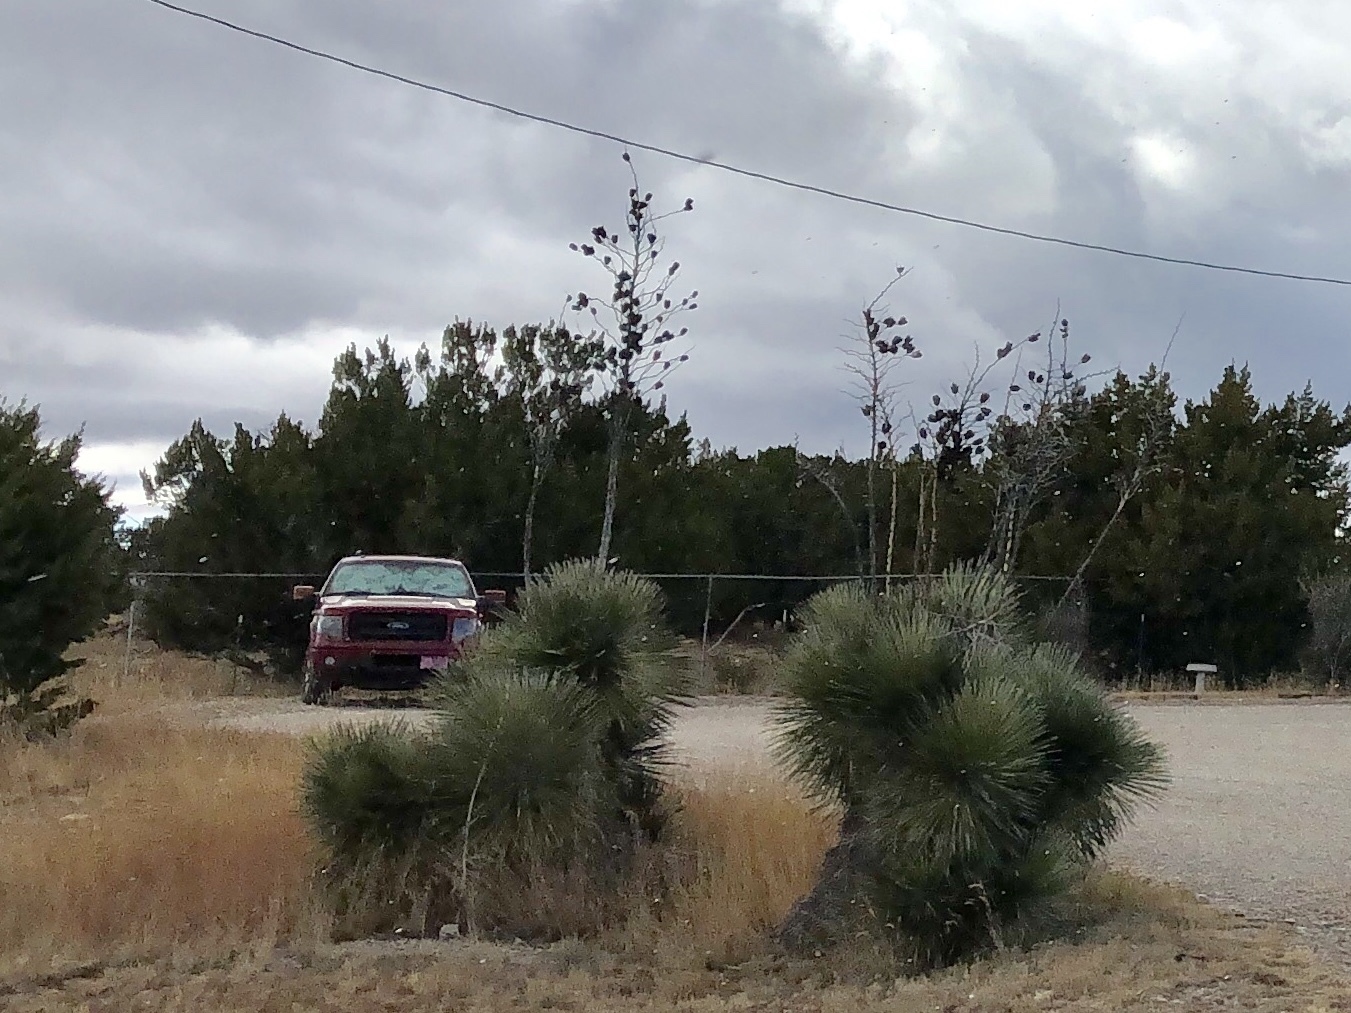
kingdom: Plantae
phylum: Tracheophyta
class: Liliopsida
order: Asparagales
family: Asparagaceae
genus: Yucca
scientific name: Yucca elata
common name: Palmella
